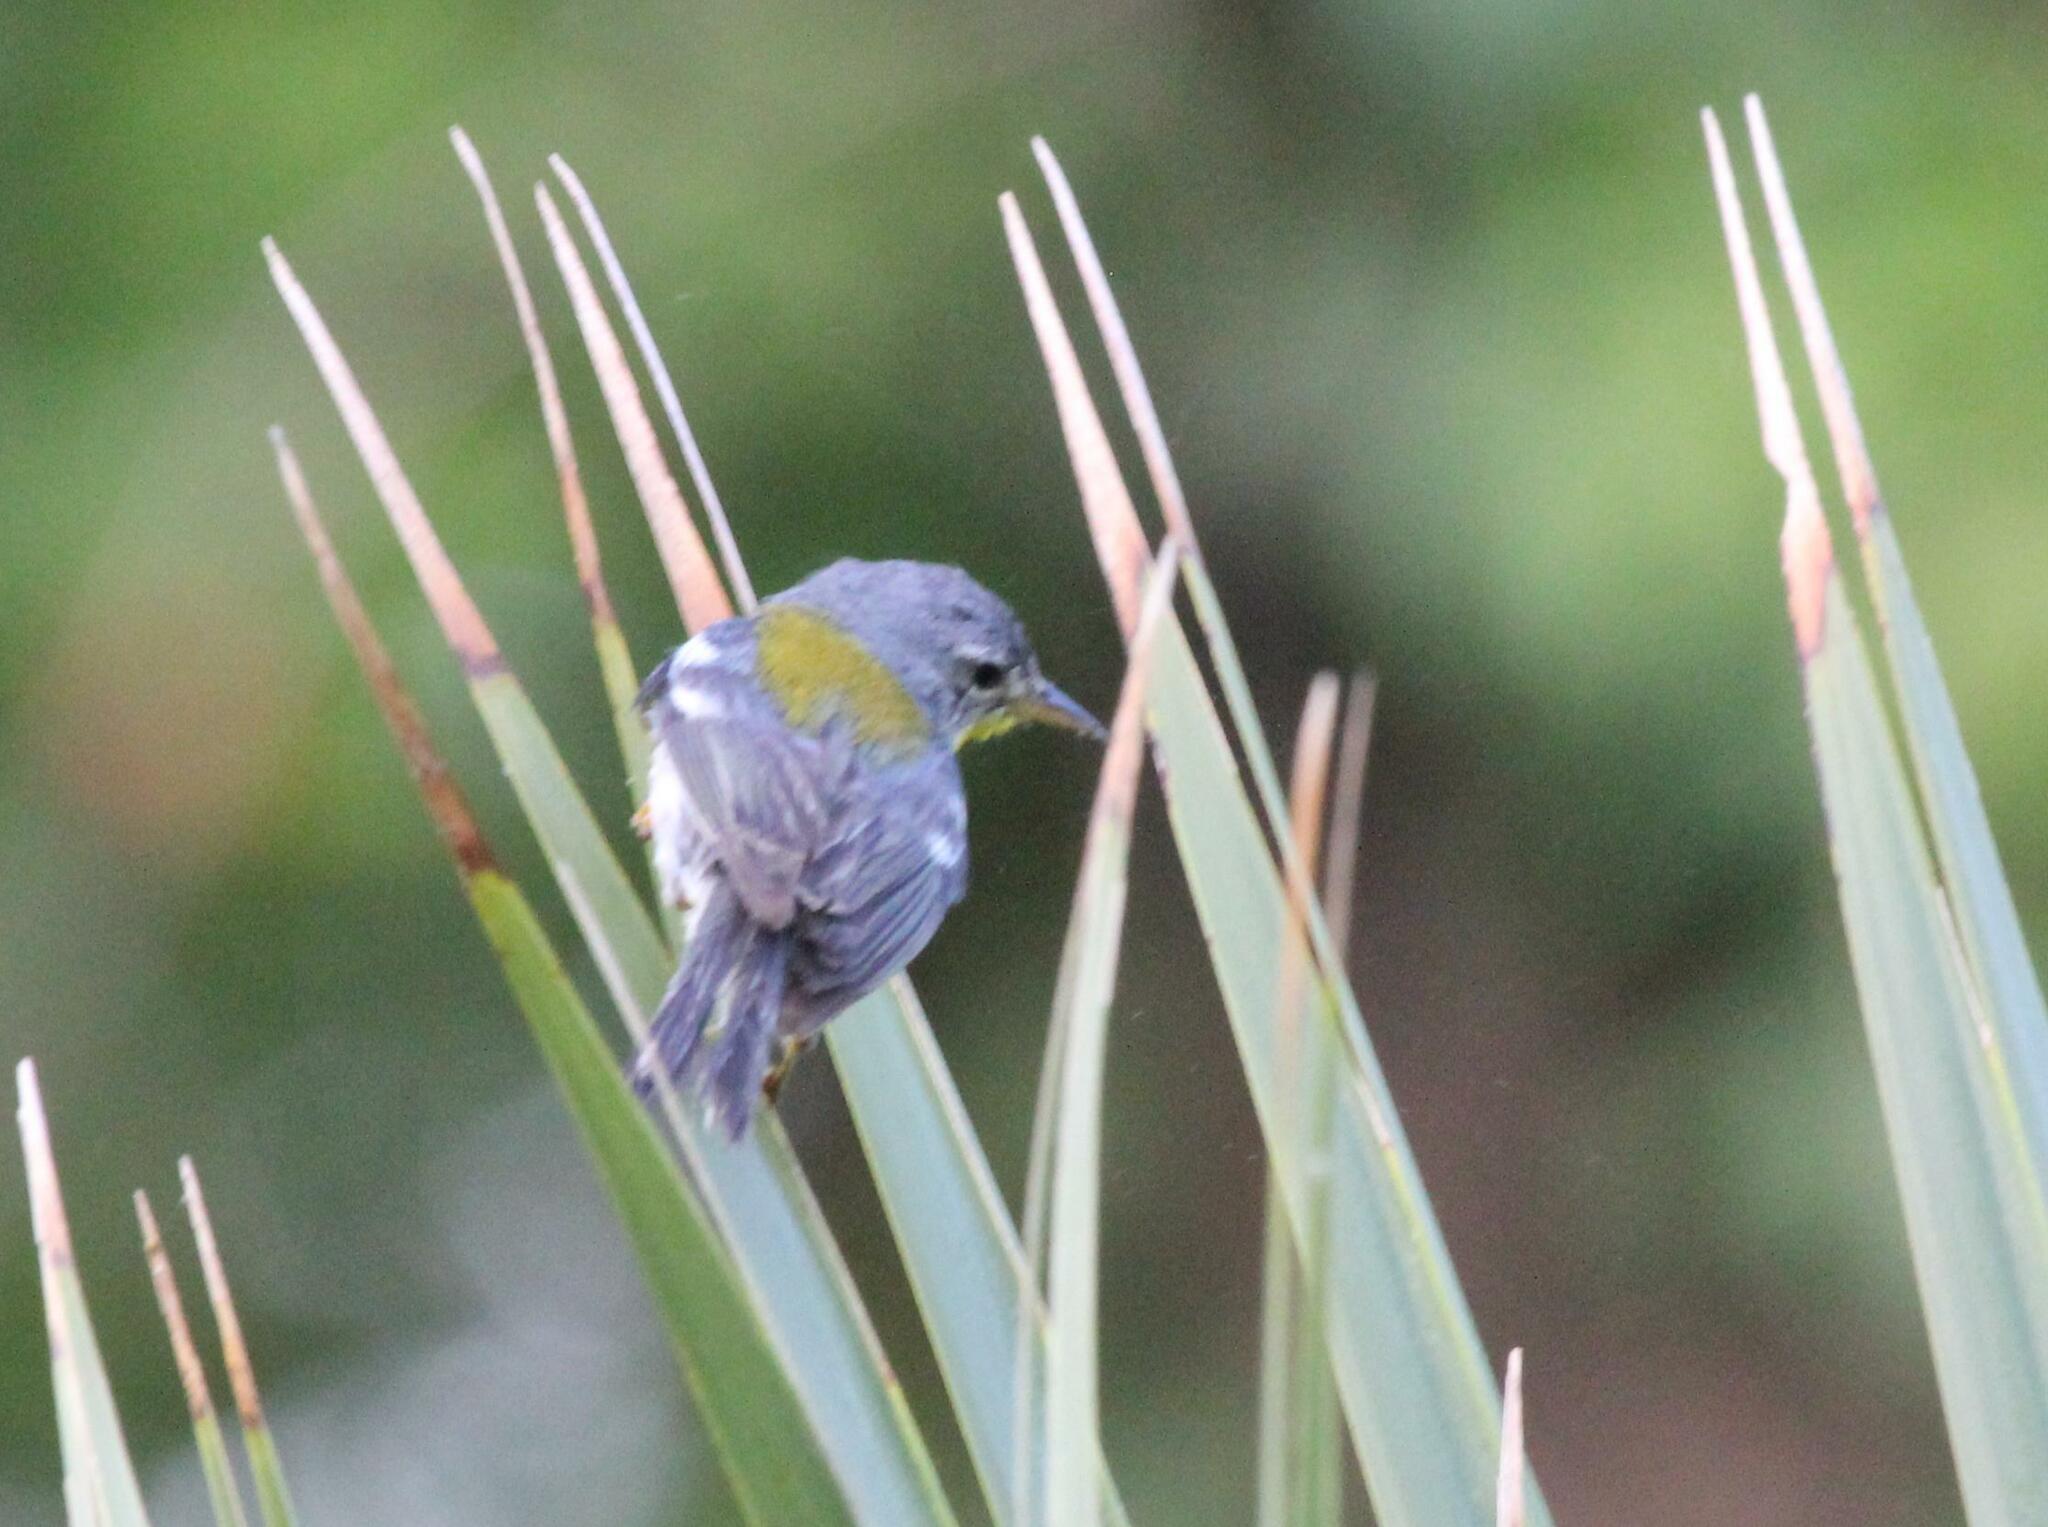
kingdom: Animalia
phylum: Chordata
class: Aves
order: Passeriformes
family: Parulidae
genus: Setophaga
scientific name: Setophaga americana
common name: Northern parula
